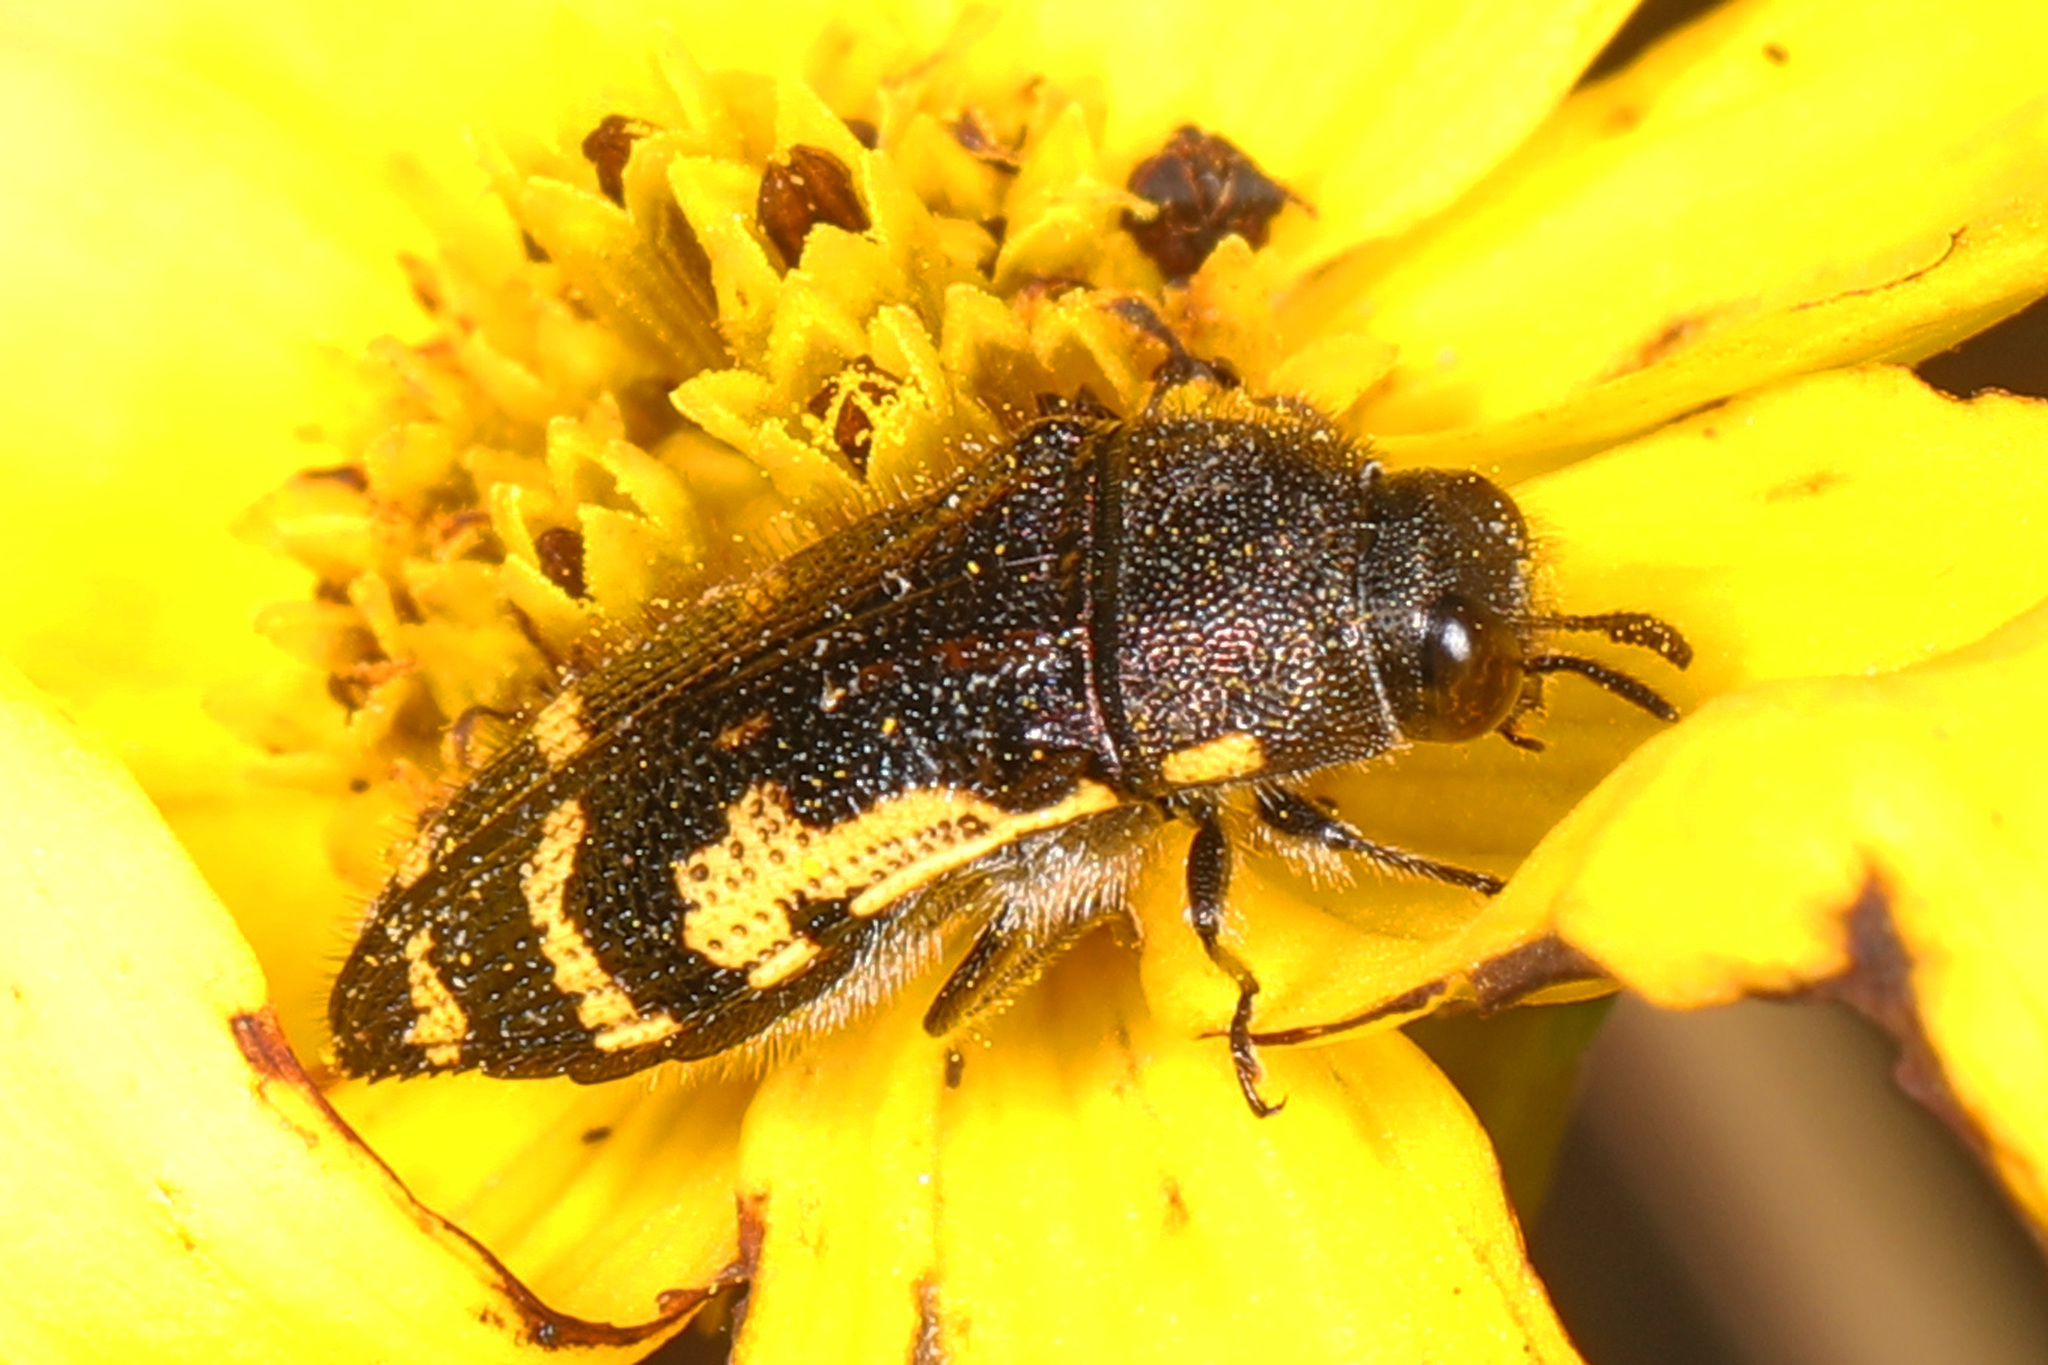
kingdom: Animalia
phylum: Arthropoda
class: Insecta
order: Coleoptera
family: Buprestidae
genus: Acmaeodera
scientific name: Acmaeodera pulchella
